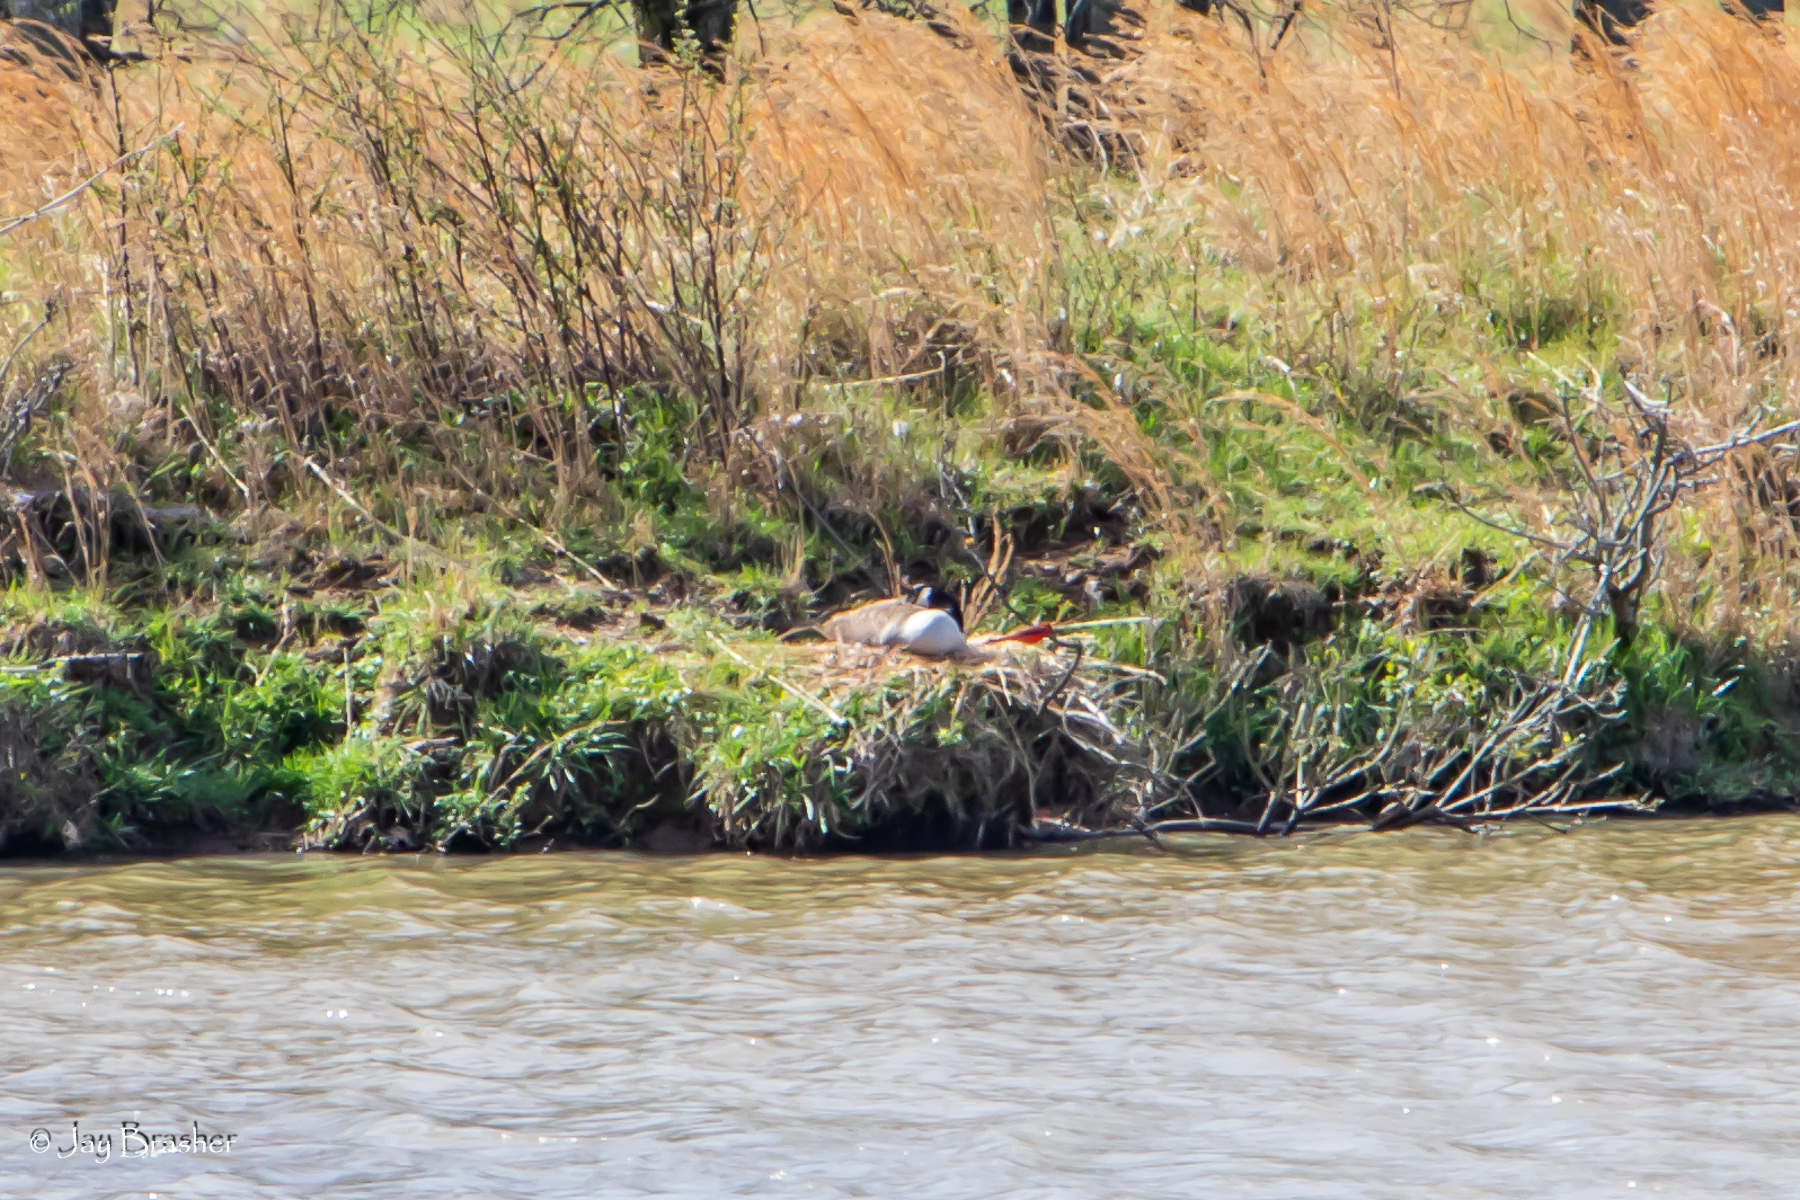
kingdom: Animalia
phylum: Chordata
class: Aves
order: Anseriformes
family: Anatidae
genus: Branta
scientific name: Branta canadensis
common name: Canada goose
